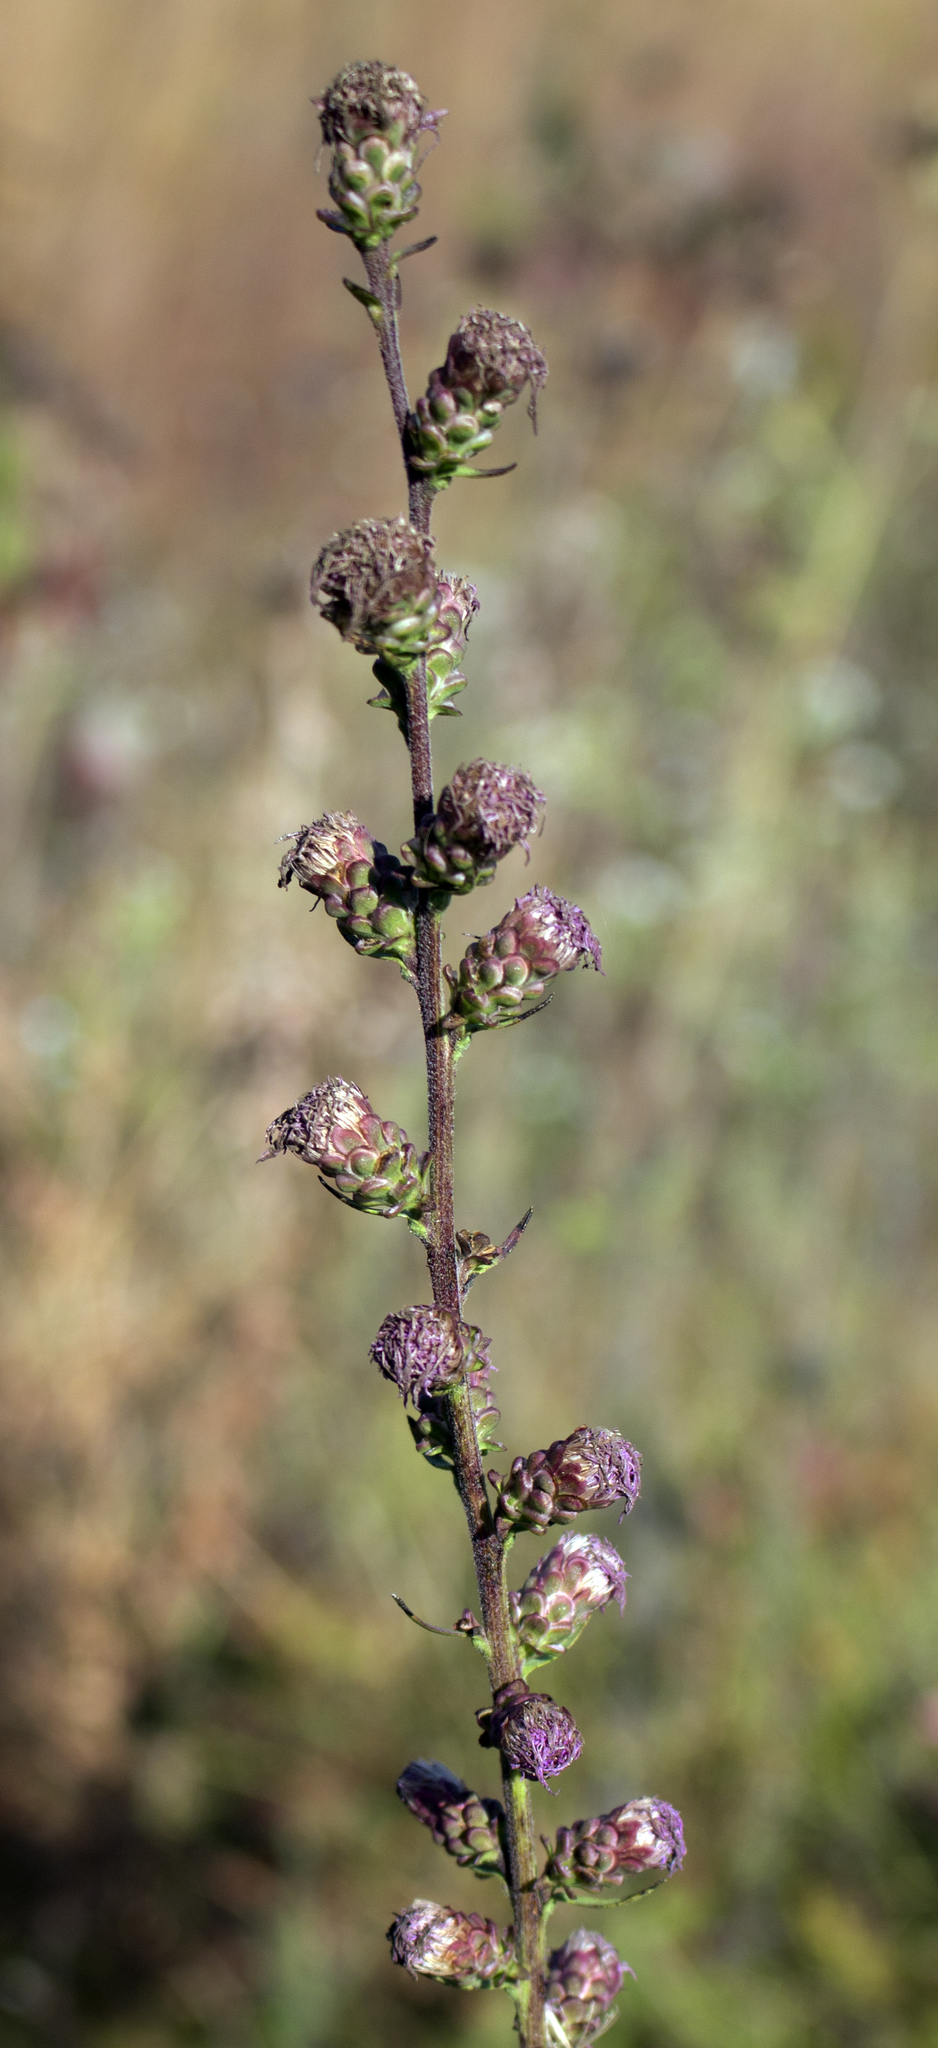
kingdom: Plantae
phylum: Tracheophyta
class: Magnoliopsida
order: Asterales
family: Asteraceae
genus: Liatris
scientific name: Liatris aspera
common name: Lacerate blazing-star
